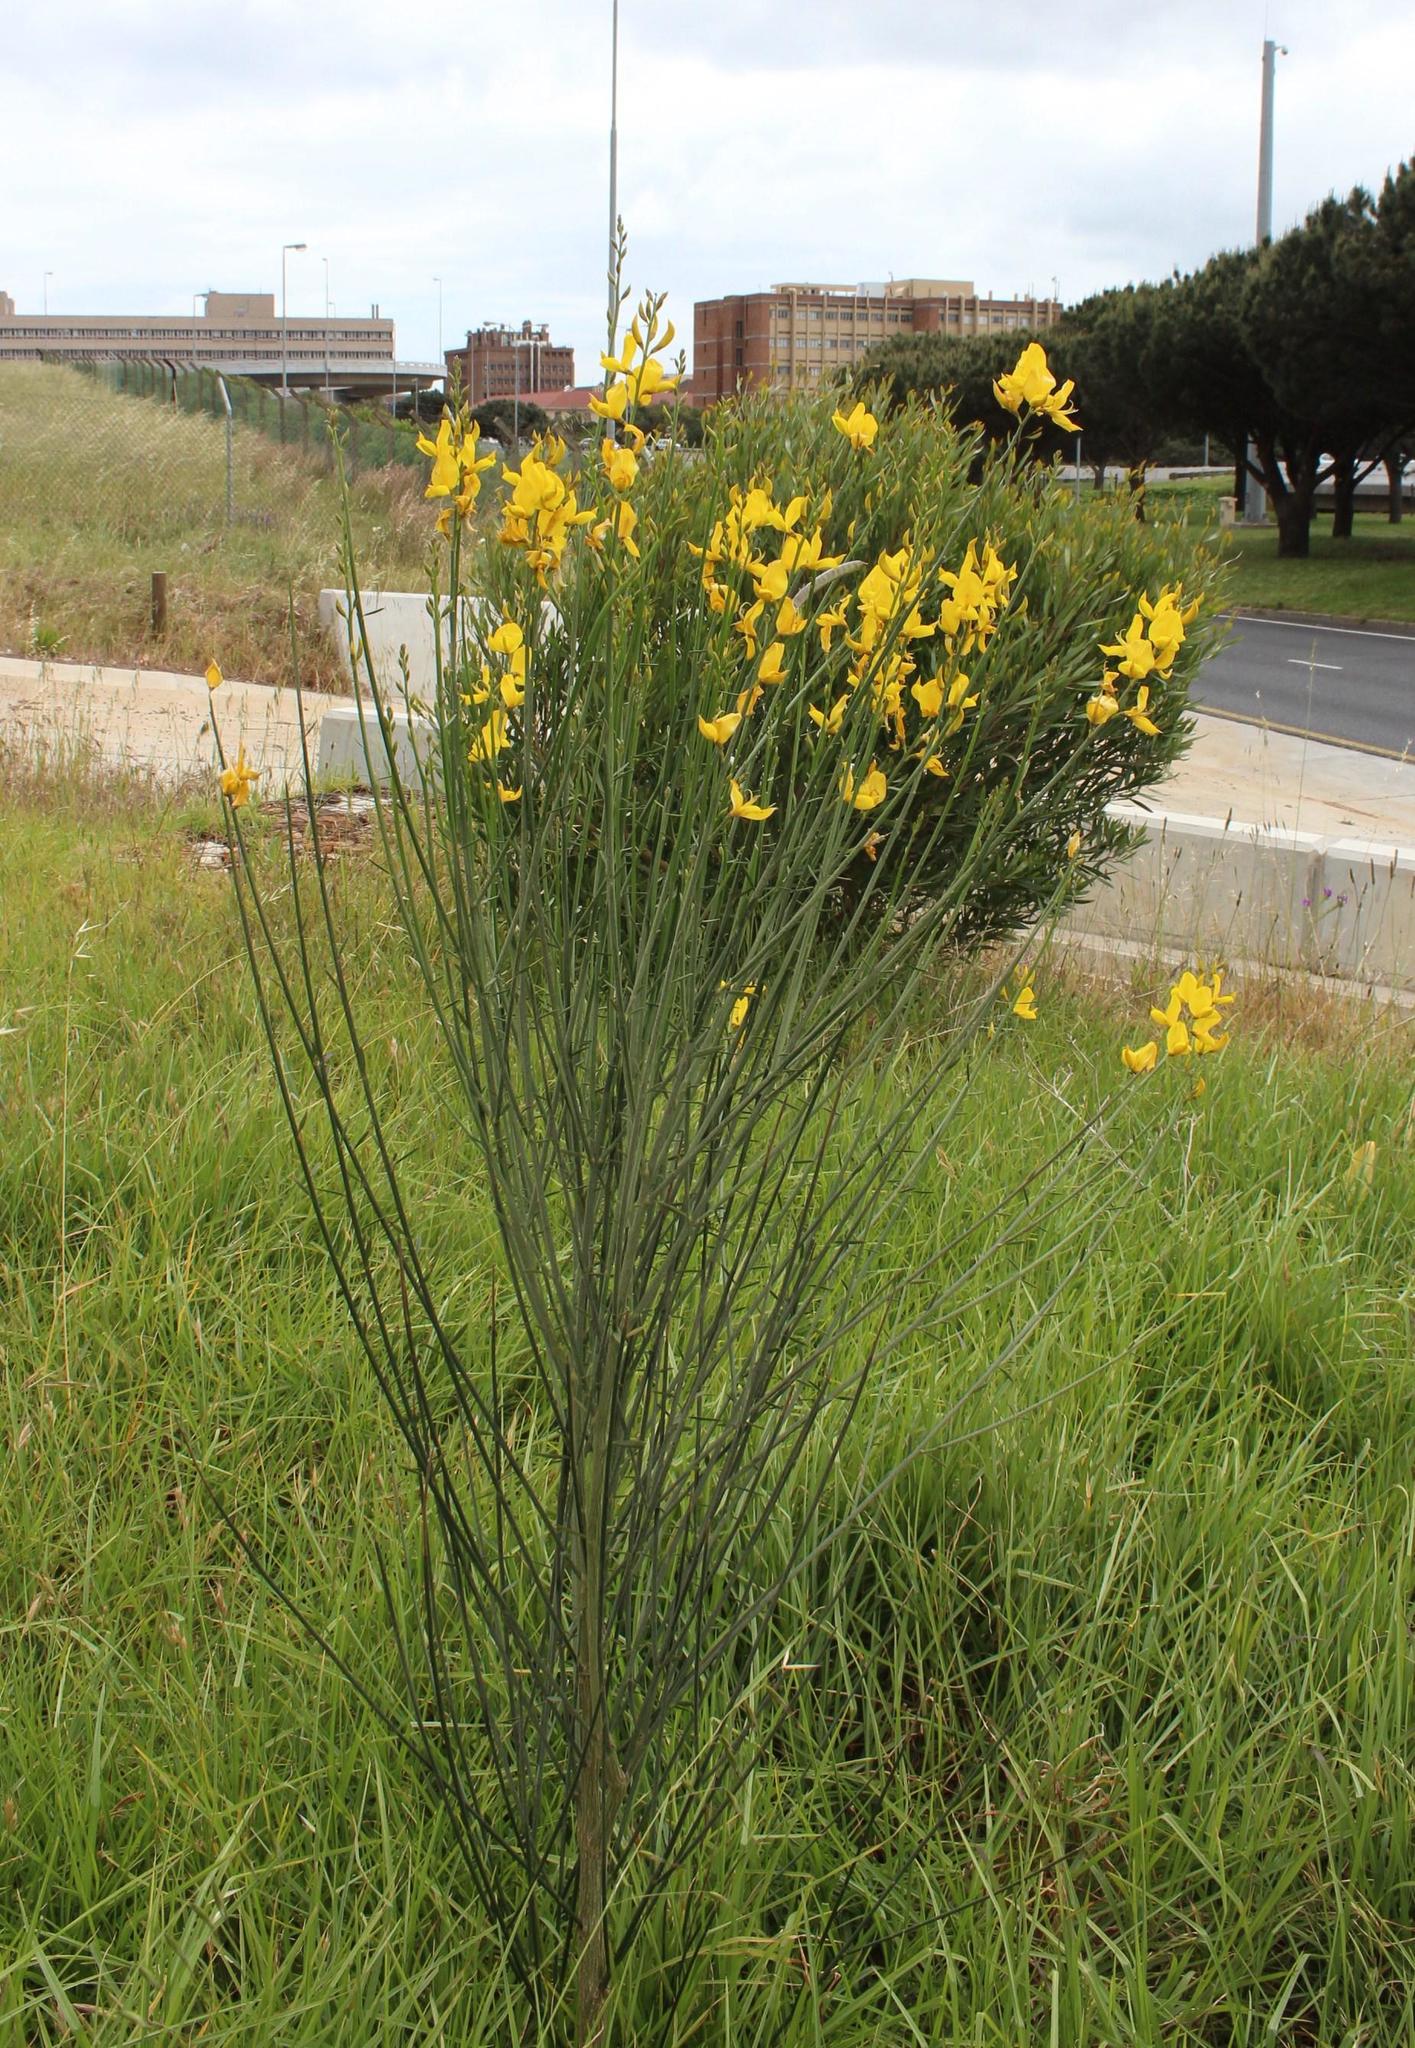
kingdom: Plantae
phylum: Tracheophyta
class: Magnoliopsida
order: Fabales
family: Fabaceae
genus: Spartium
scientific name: Spartium junceum
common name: Spanish broom
